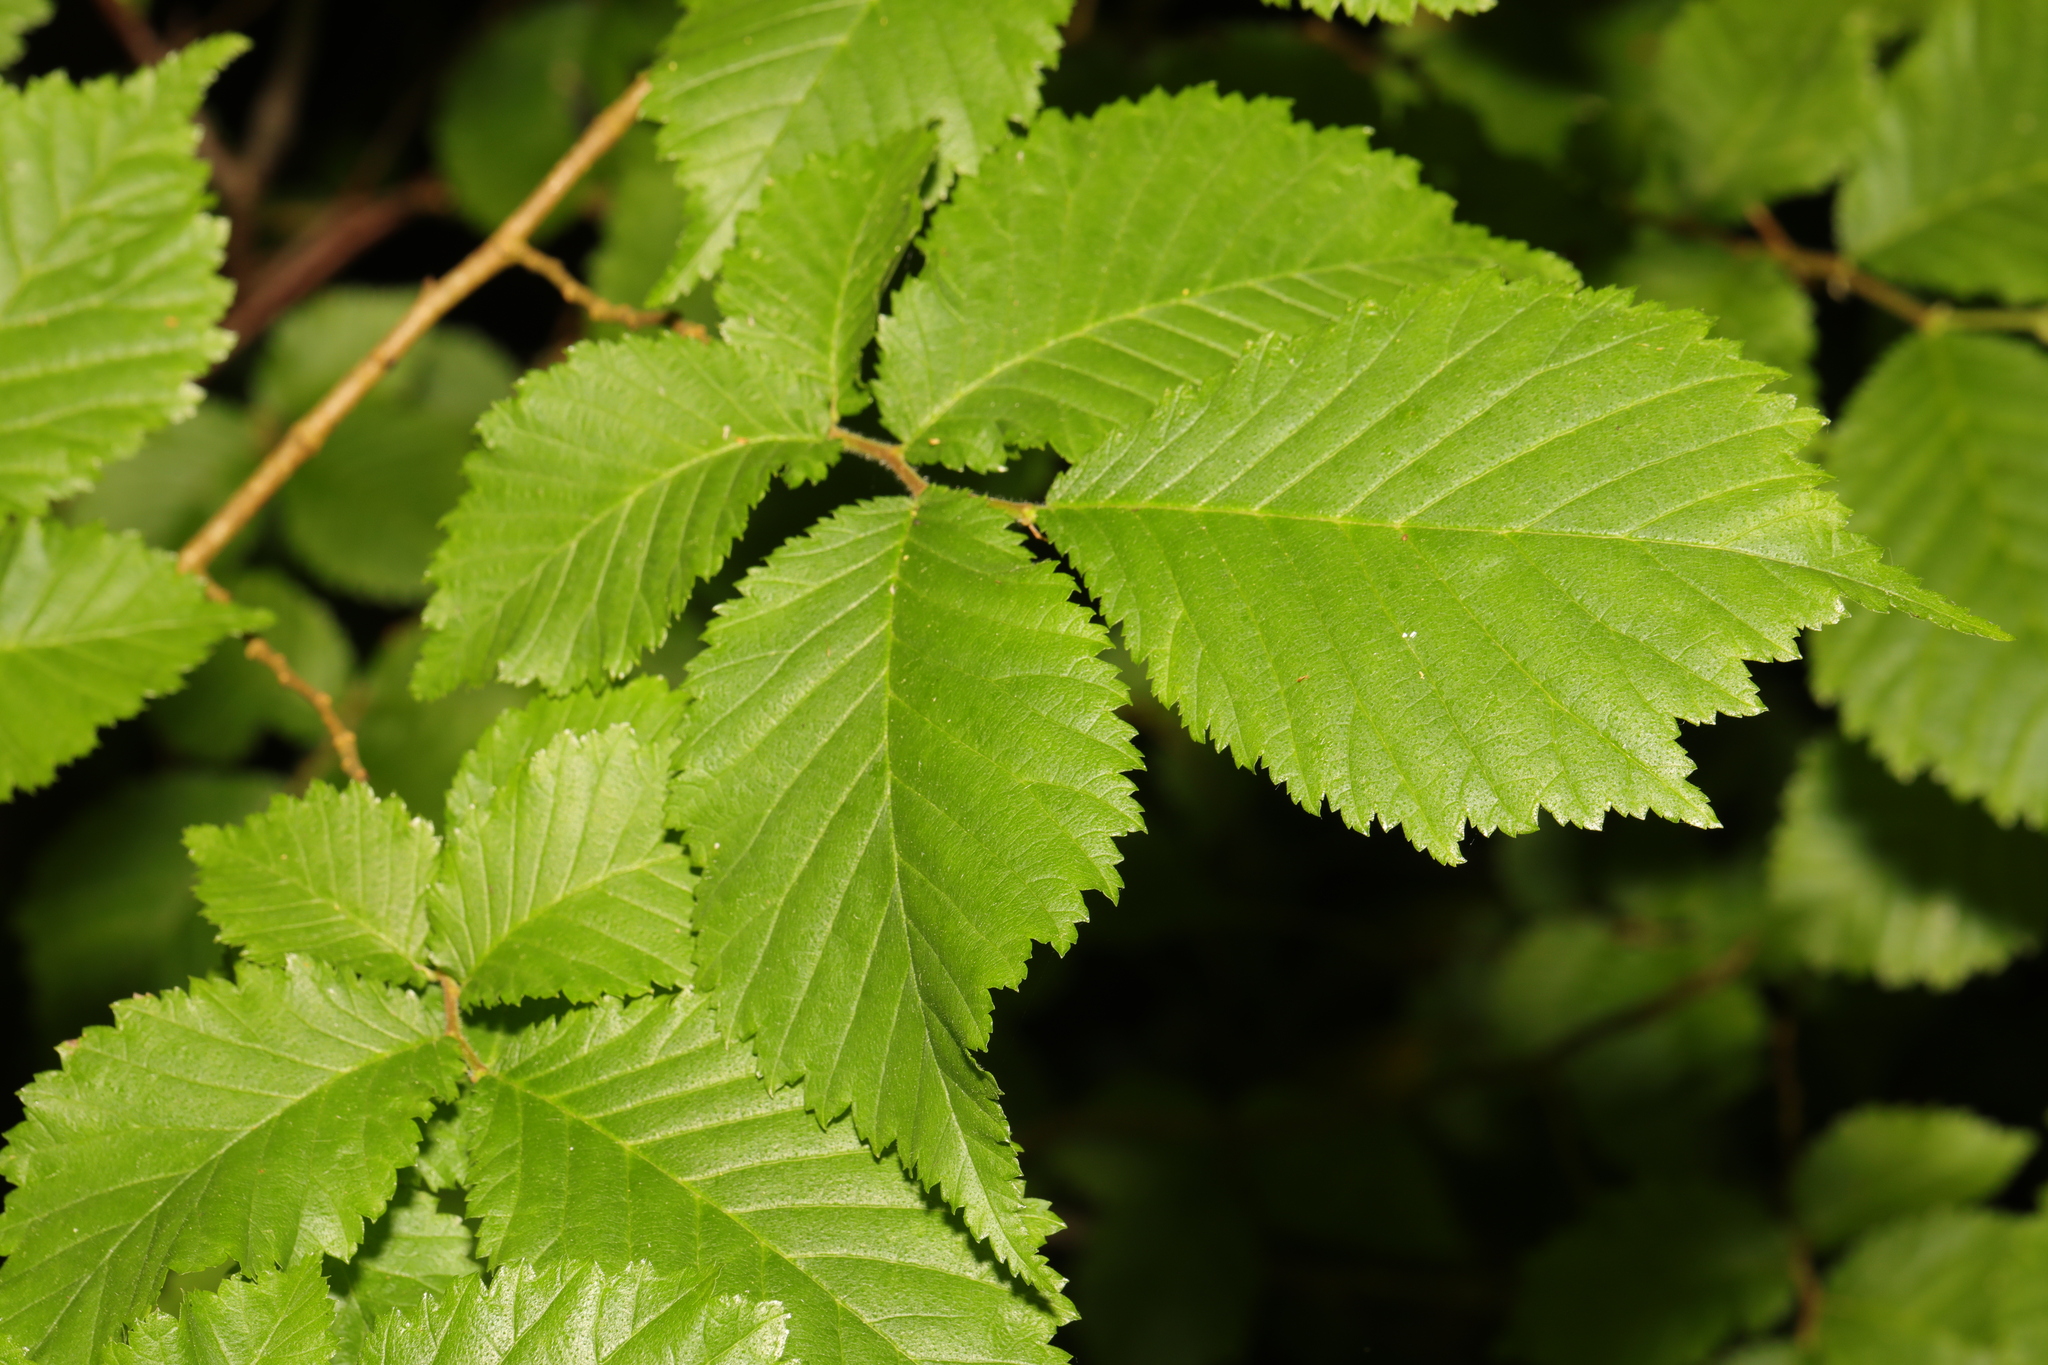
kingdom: Plantae
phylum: Tracheophyta
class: Magnoliopsida
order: Rosales
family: Ulmaceae
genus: Ulmus
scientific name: Ulmus glabra
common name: Wych elm
